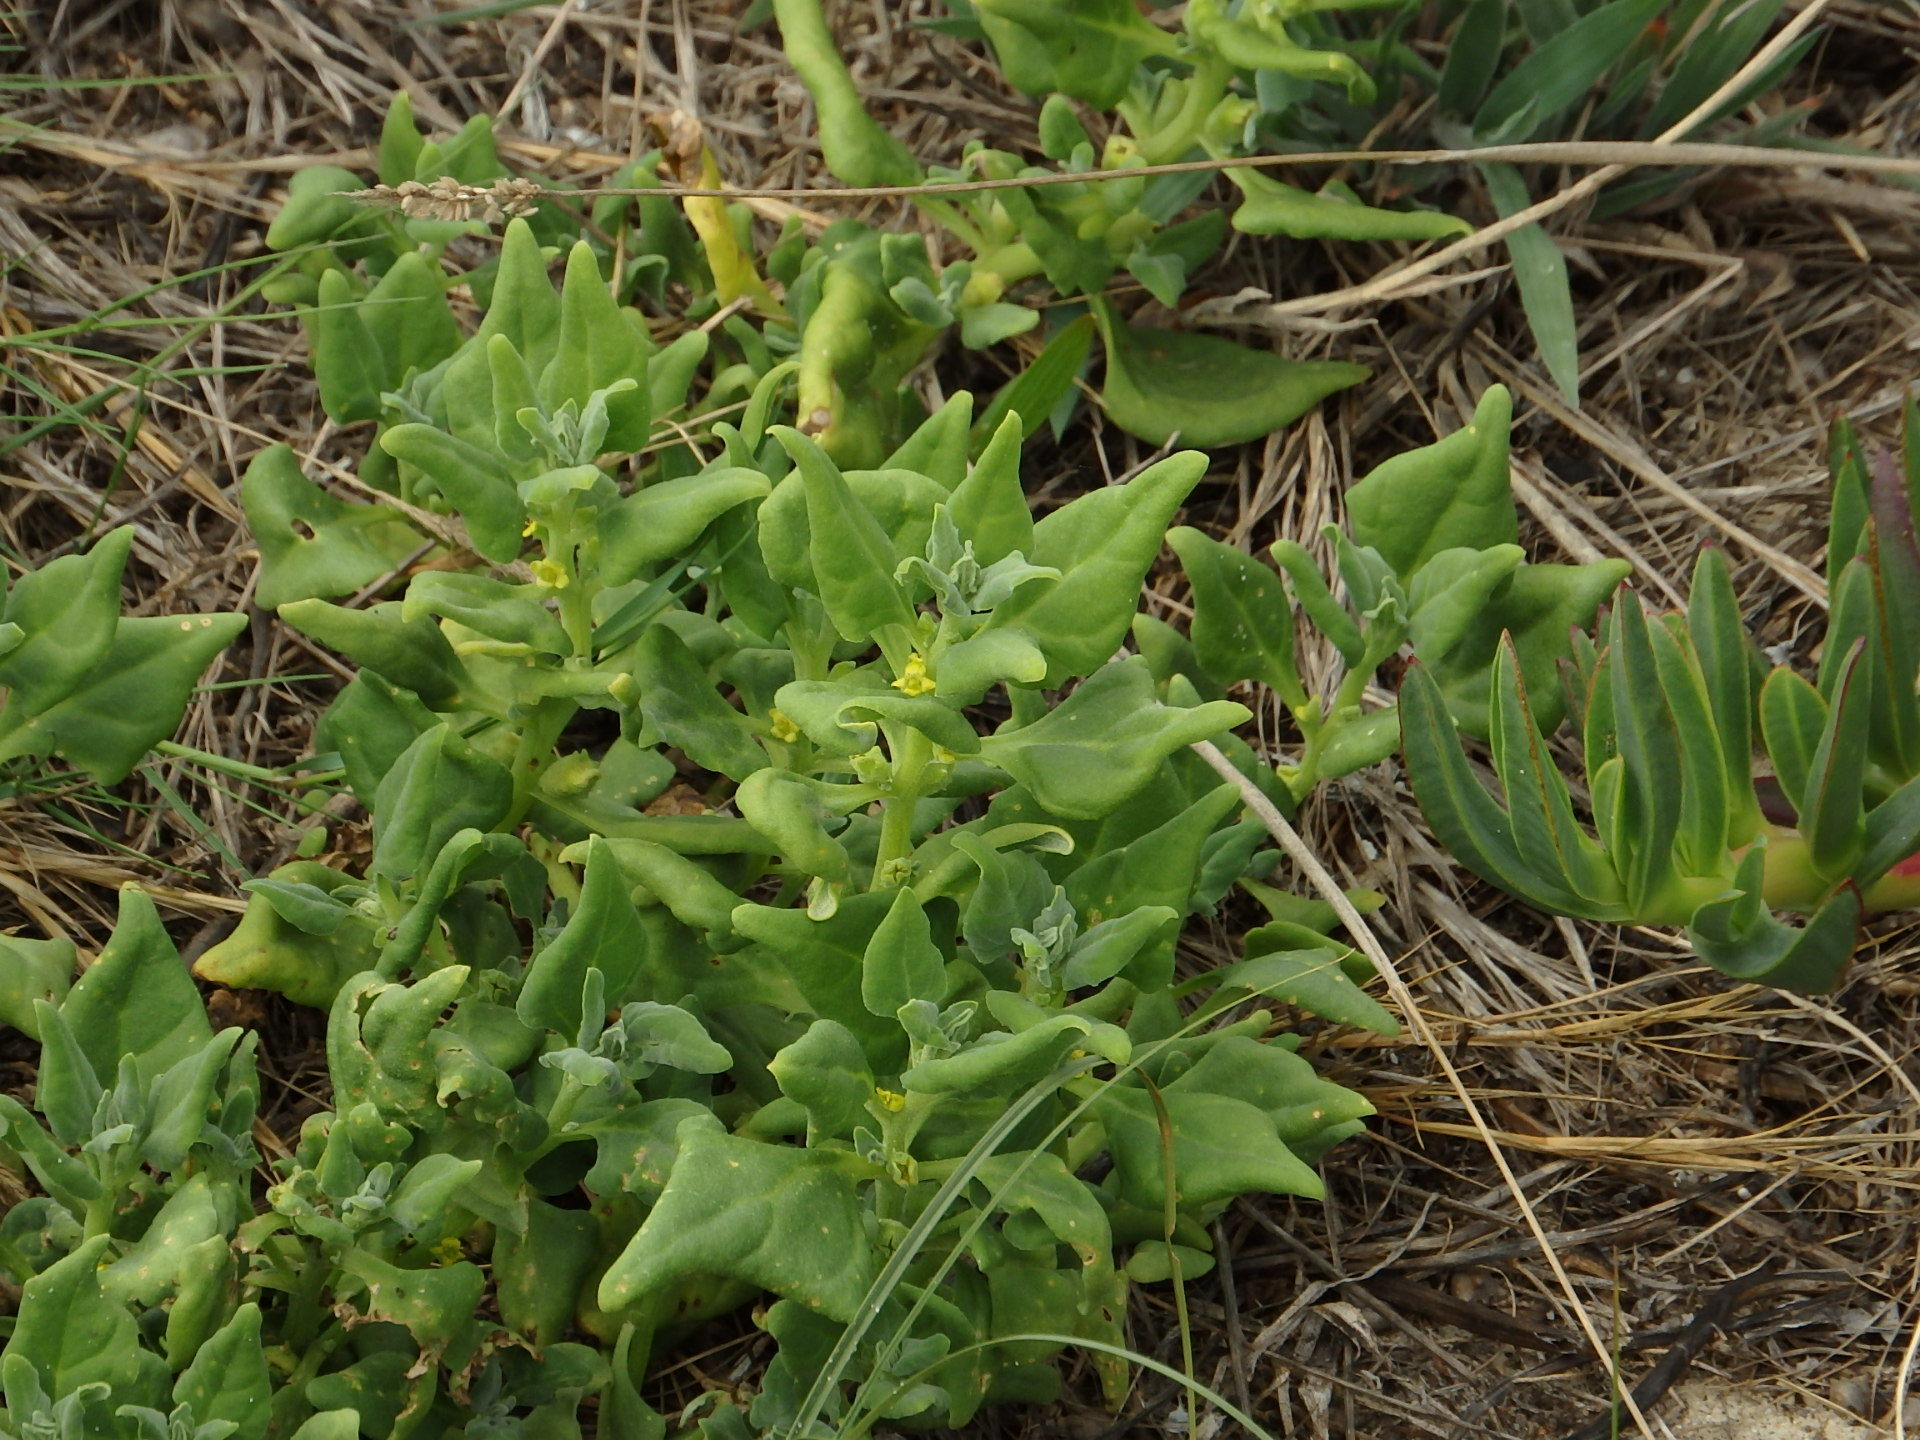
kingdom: Plantae
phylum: Tracheophyta
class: Magnoliopsida
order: Caryophyllales
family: Aizoaceae
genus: Tetragonia
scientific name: Tetragonia tetragonoides
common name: New zealand-spinach
